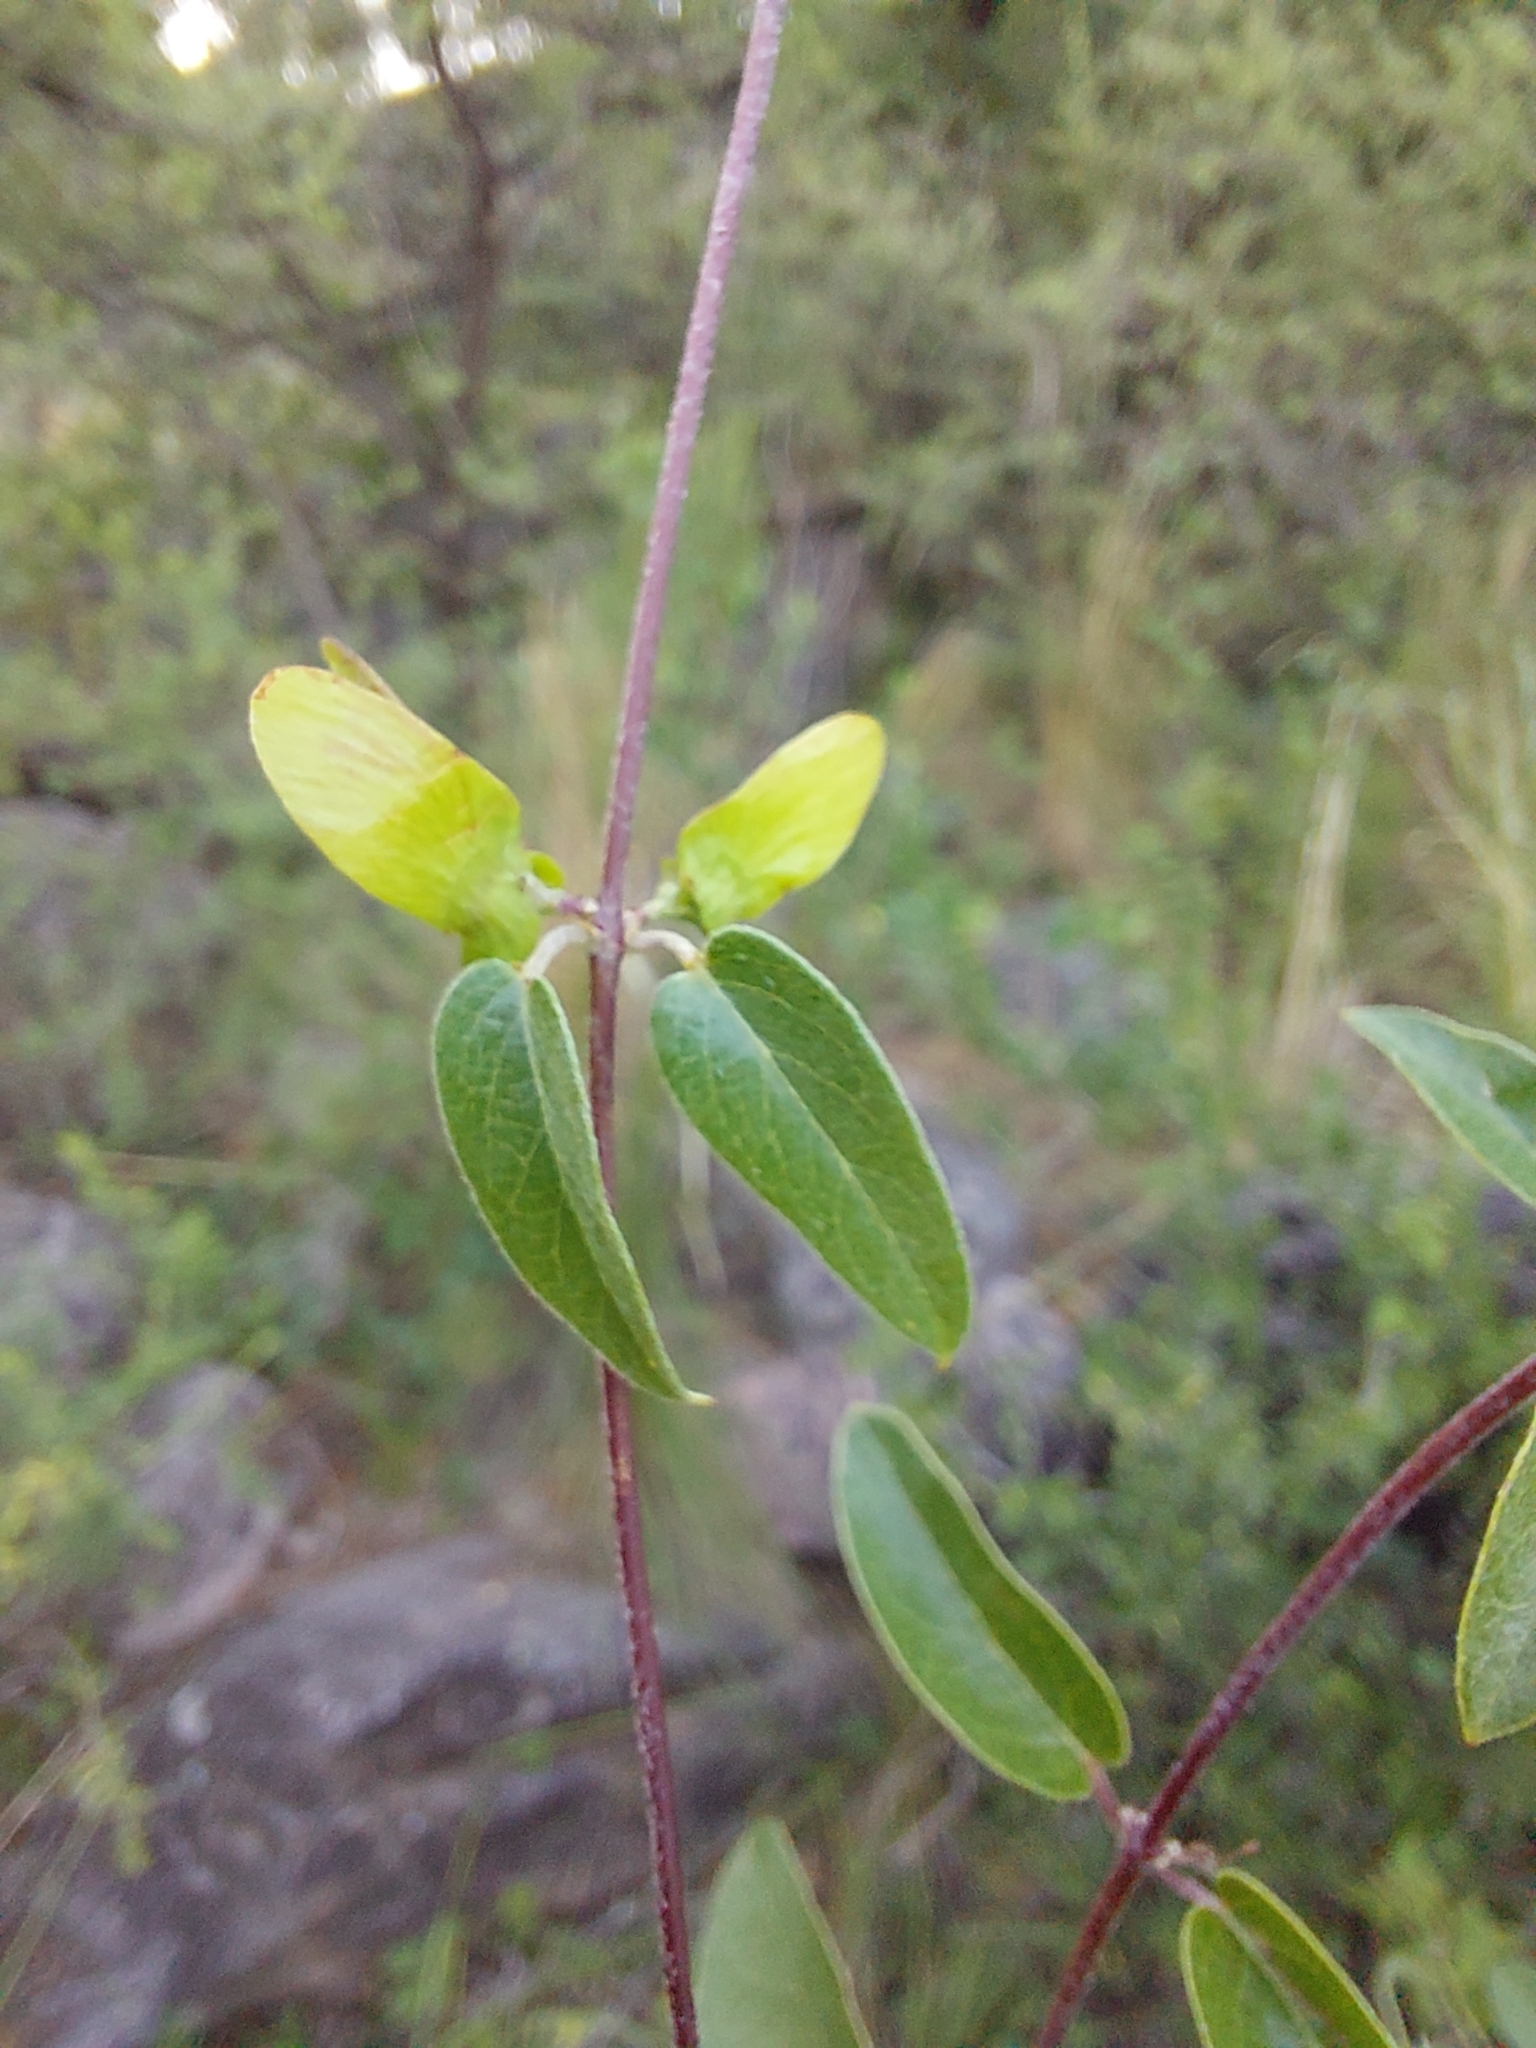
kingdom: Plantae
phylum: Tracheophyta
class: Magnoliopsida
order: Malpighiales
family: Malpighiaceae
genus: Janusia
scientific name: Janusia guaranitica
